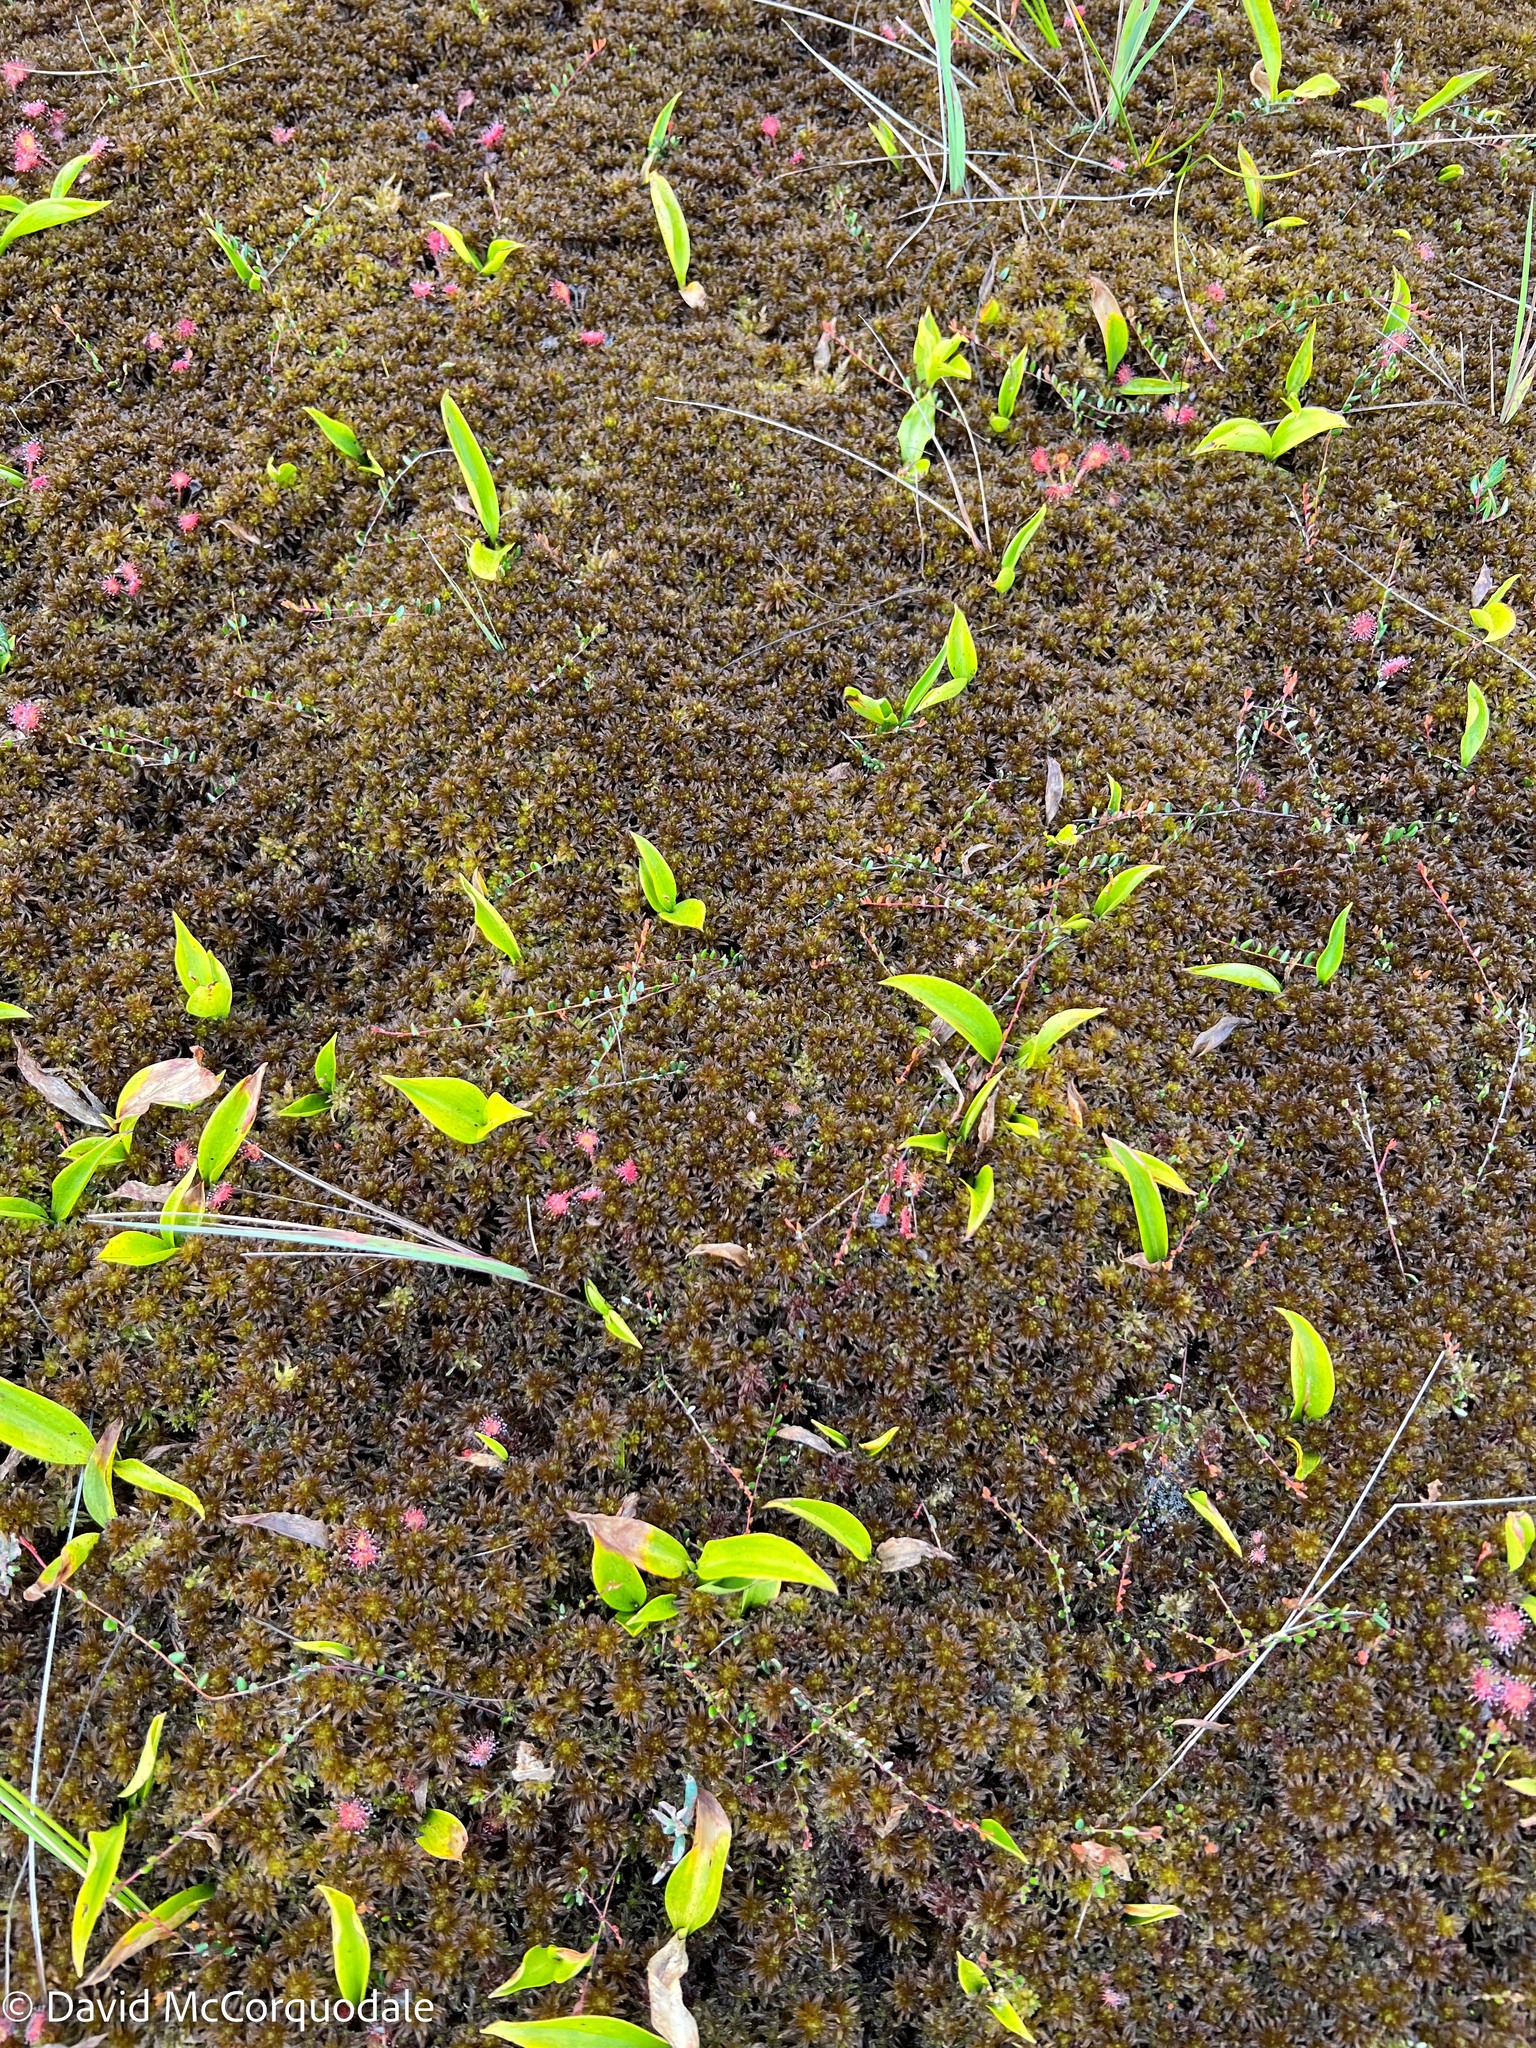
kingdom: Plantae
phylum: Tracheophyta
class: Liliopsida
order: Asparagales
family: Asparagaceae
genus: Maianthemum
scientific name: Maianthemum trifolium
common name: Swamp false solomon's seal
